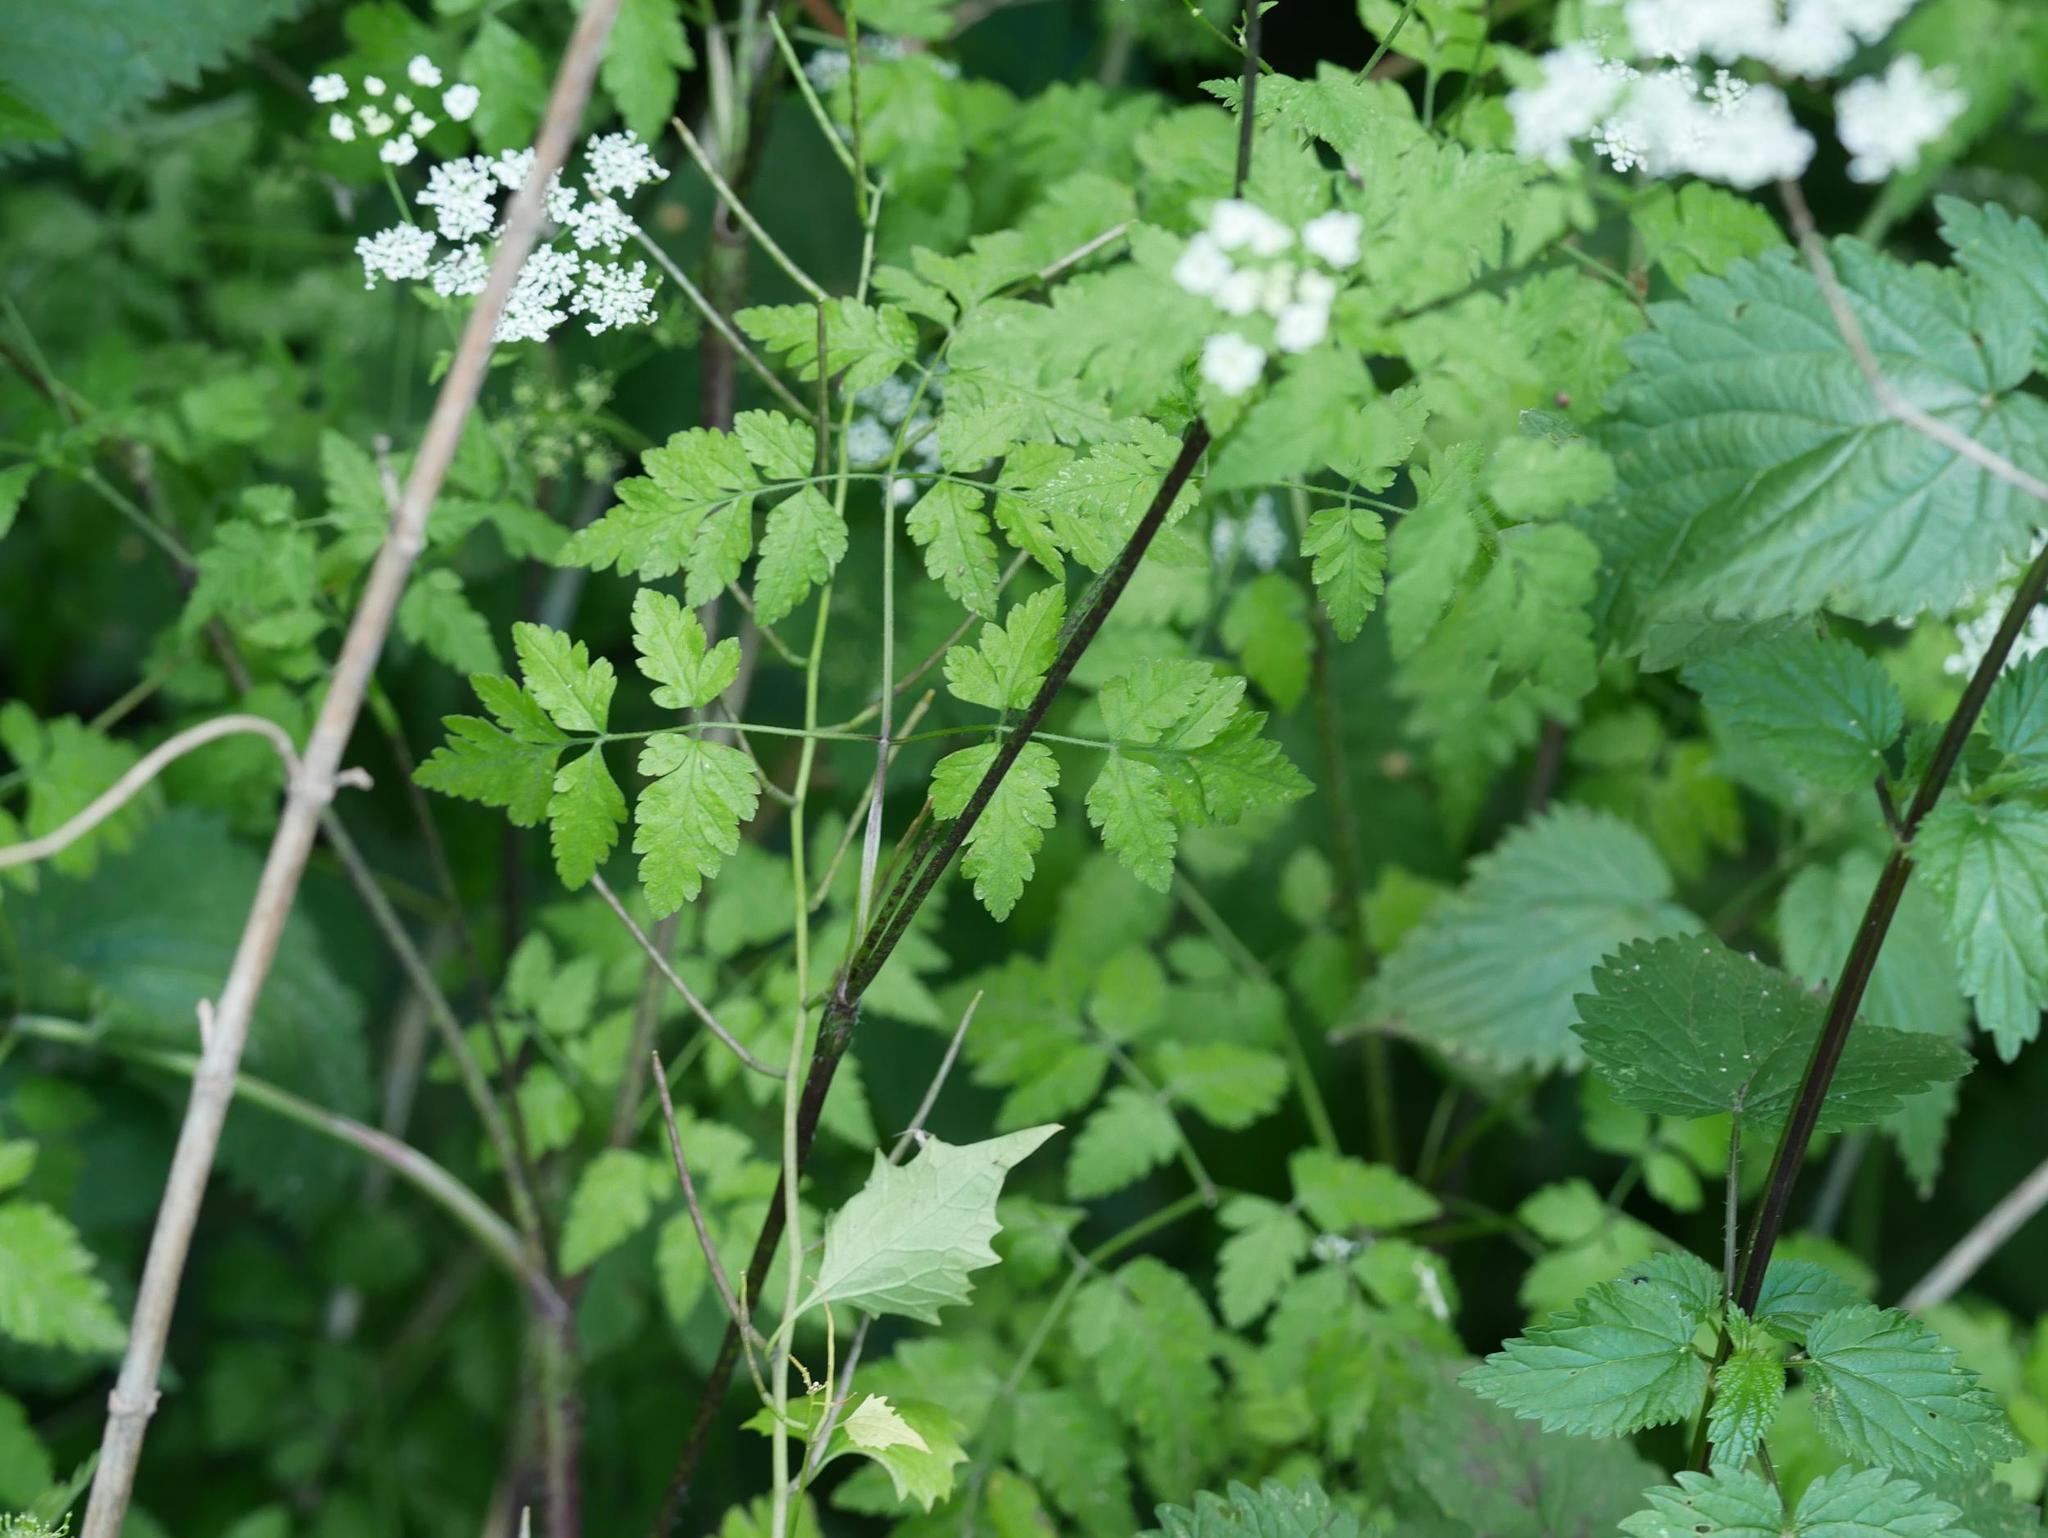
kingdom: Plantae
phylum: Tracheophyta
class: Magnoliopsida
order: Apiales
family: Apiaceae
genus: Chaerophyllum
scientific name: Chaerophyllum temulum
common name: Rough chervil
